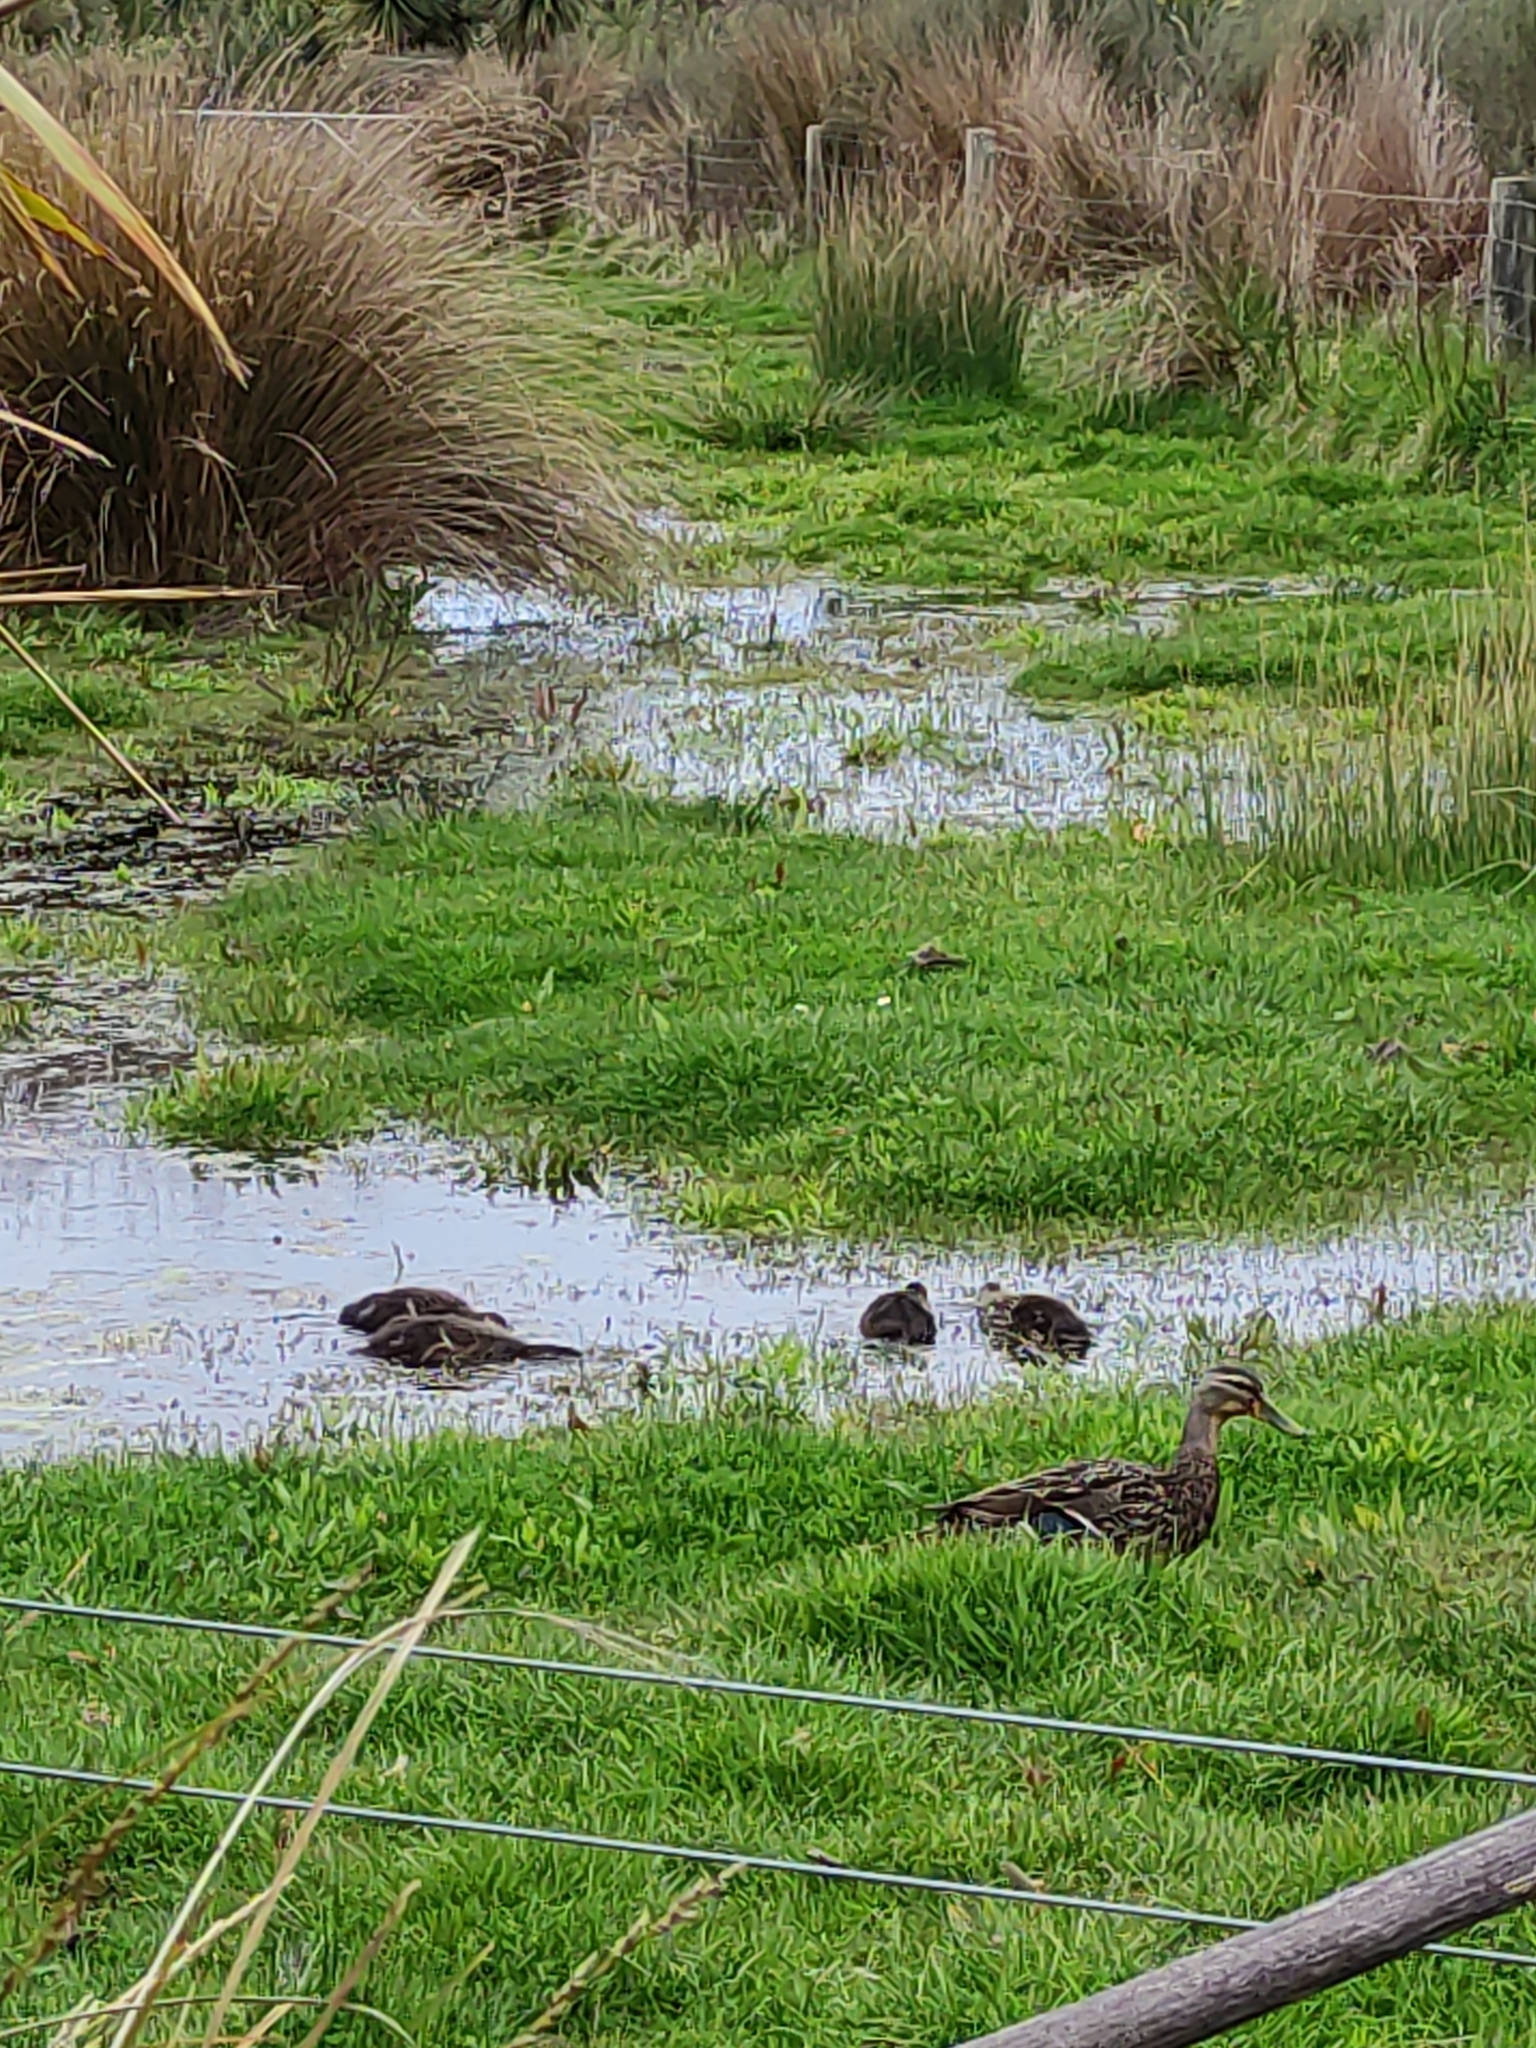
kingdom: Animalia
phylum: Chordata
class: Aves
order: Anseriformes
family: Anatidae
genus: Anas
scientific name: Anas platyrhynchos
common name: Mallard
